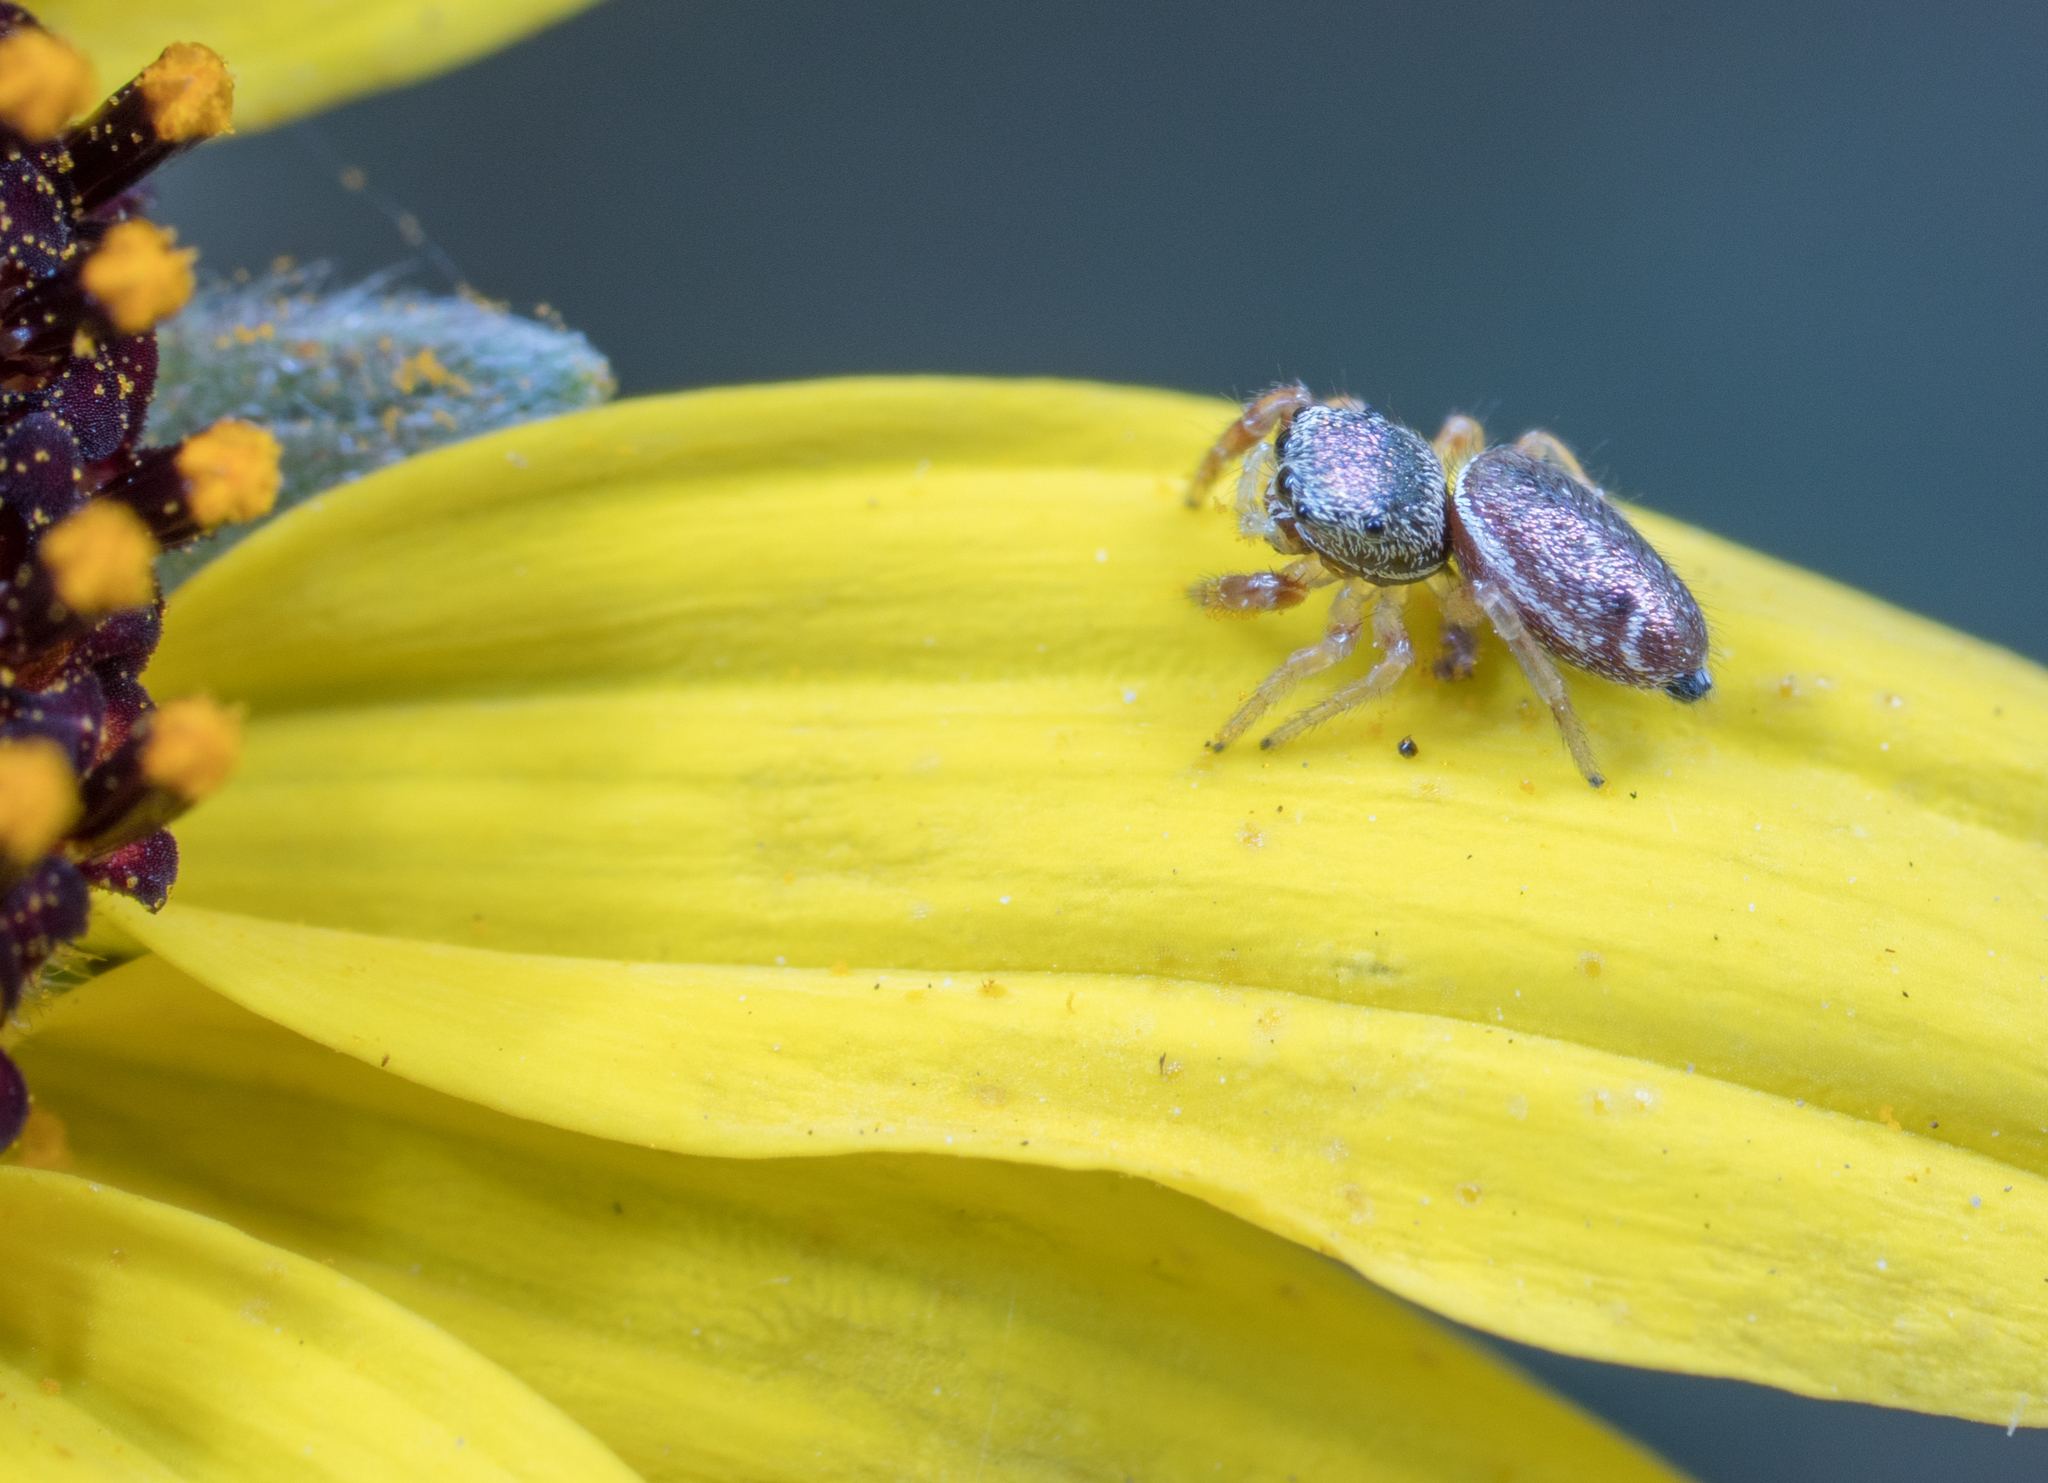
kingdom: Animalia
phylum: Arthropoda
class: Arachnida
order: Araneae
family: Salticidae
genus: Sassacus
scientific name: Sassacus vitis
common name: Jumping spiders
